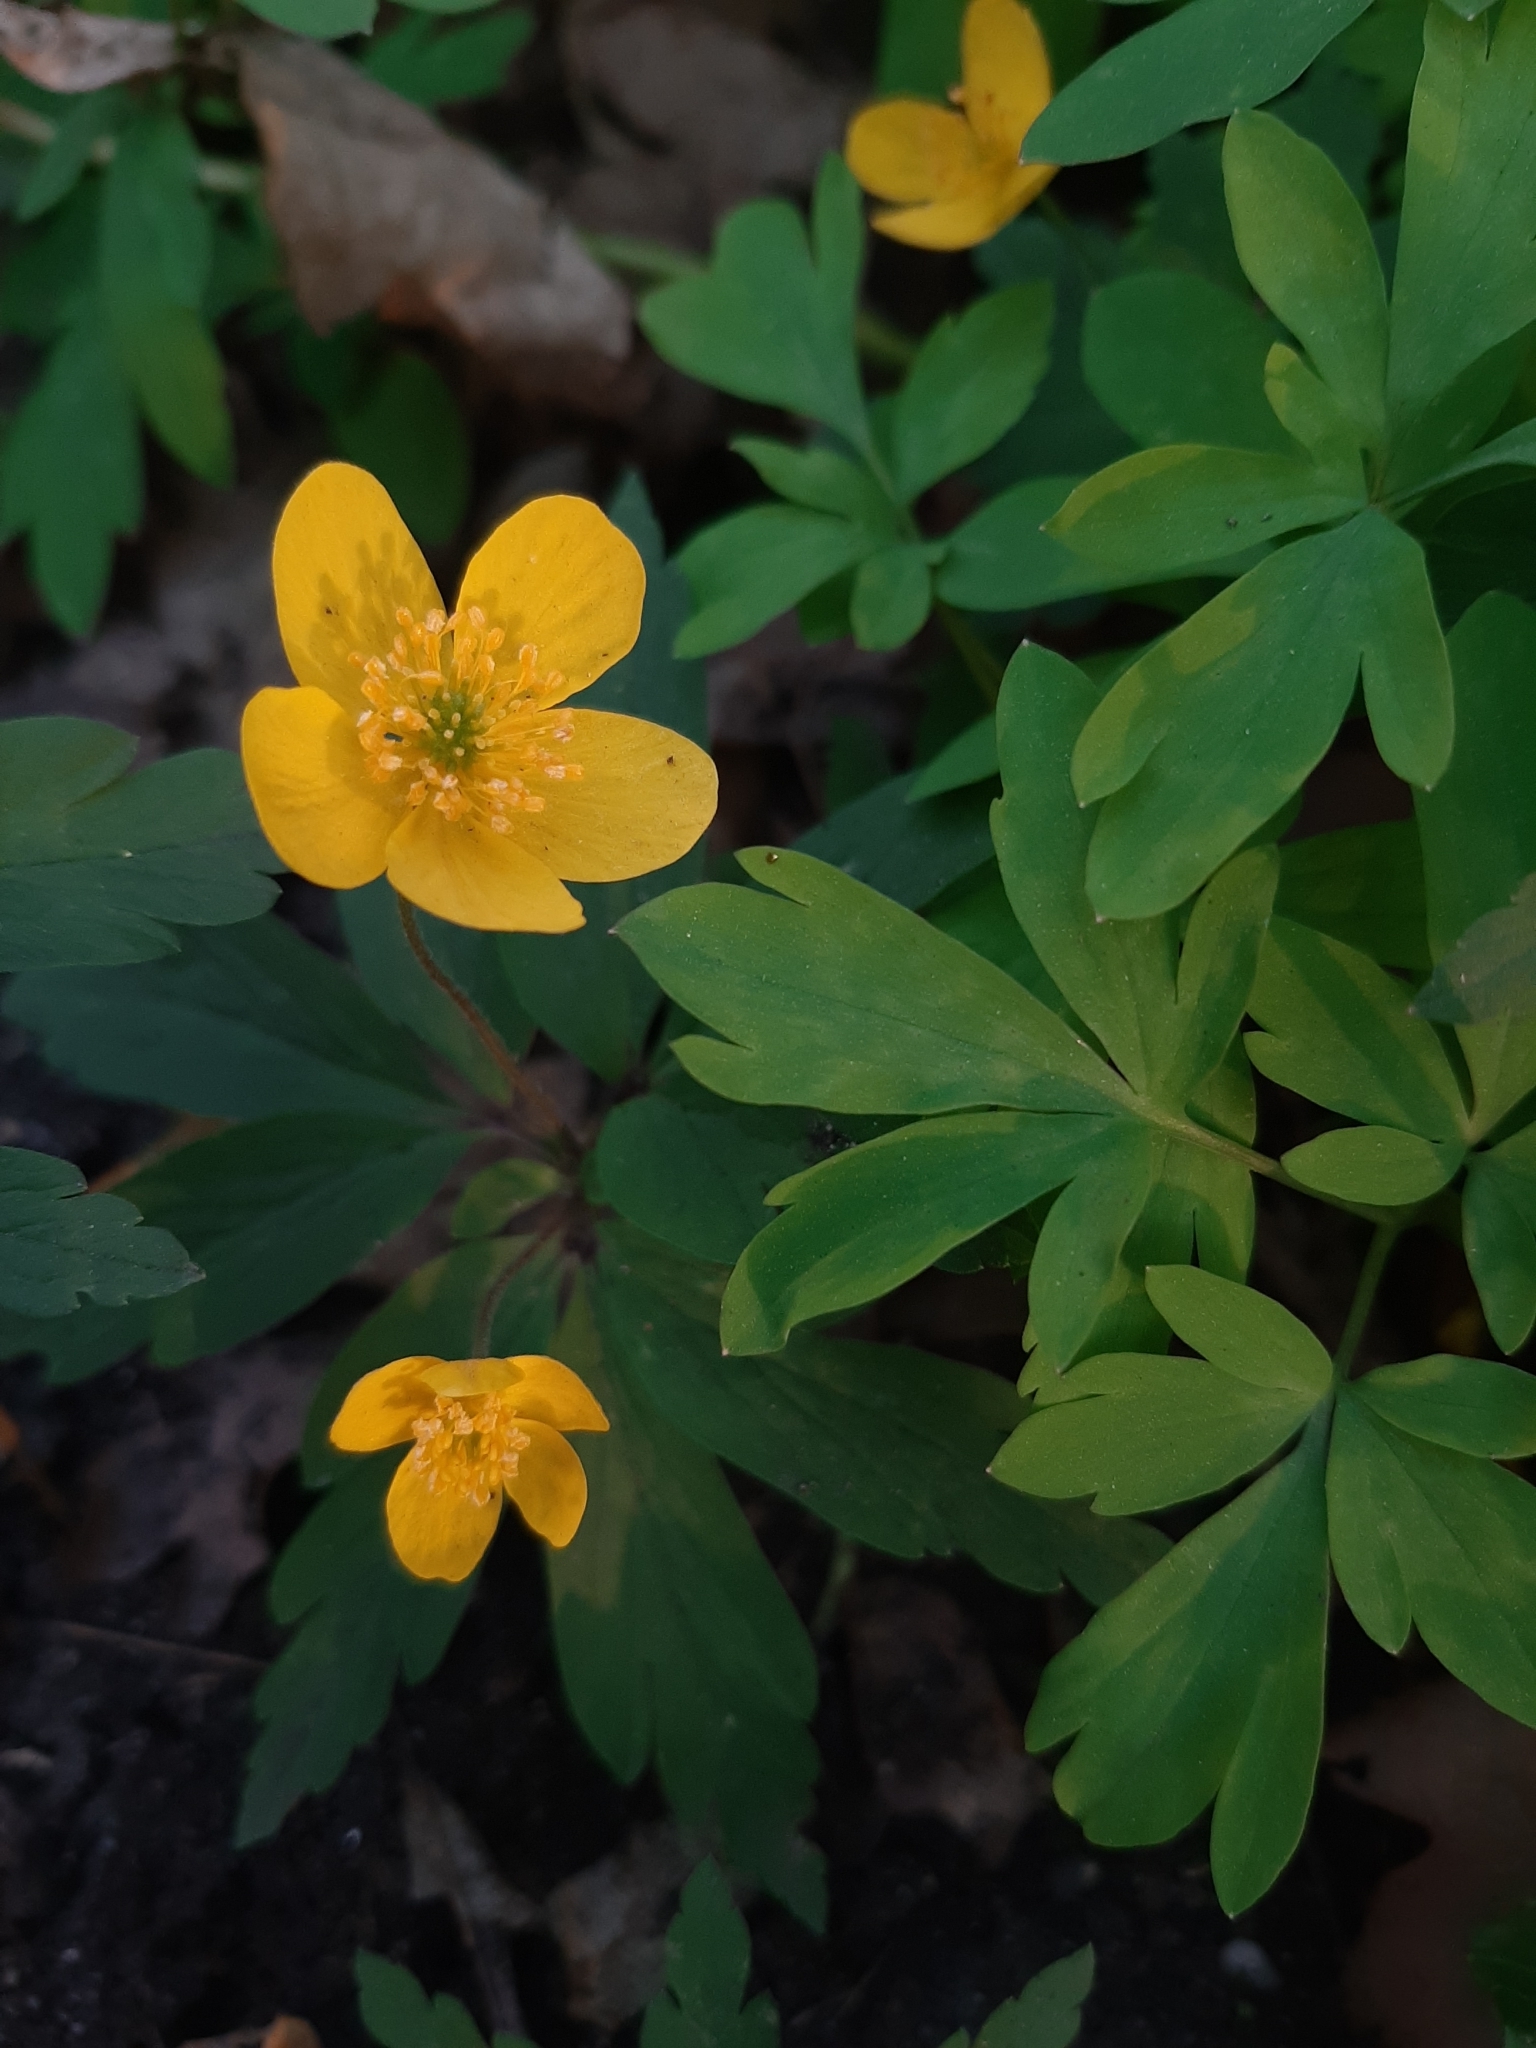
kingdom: Plantae
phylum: Tracheophyta
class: Magnoliopsida
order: Ranunculales
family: Ranunculaceae
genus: Anemone
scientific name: Anemone ranunculoides
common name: Yellow anemone
